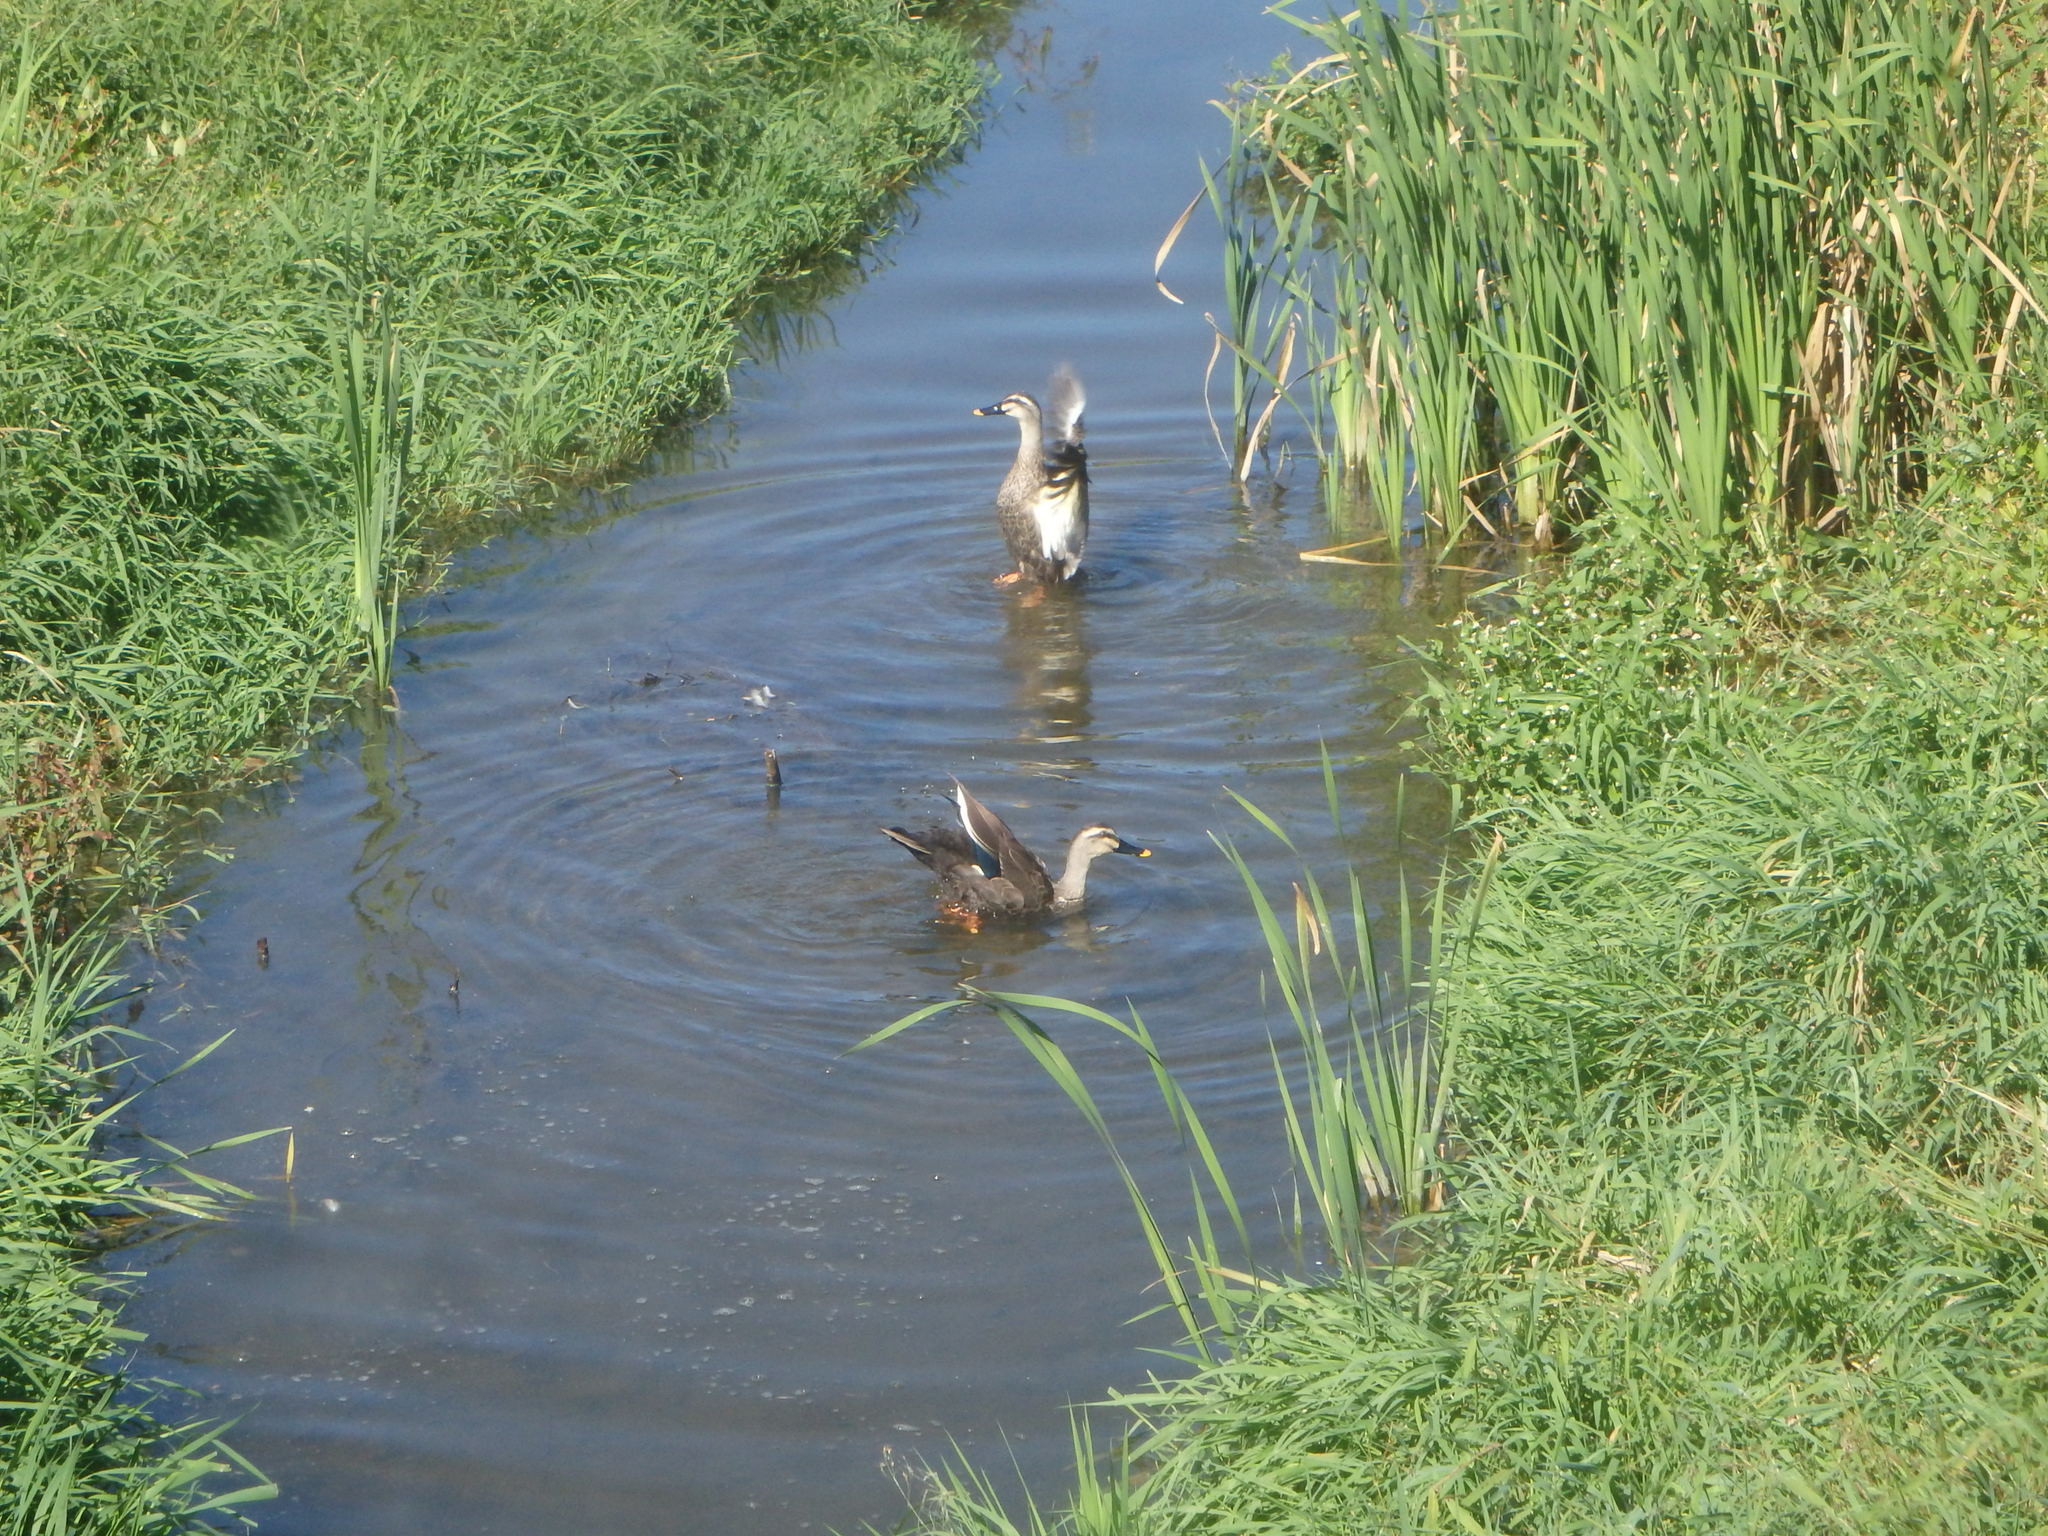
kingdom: Animalia
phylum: Chordata
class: Aves
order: Anseriformes
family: Anatidae
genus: Anas
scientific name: Anas zonorhyncha
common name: Eastern spot-billed duck
